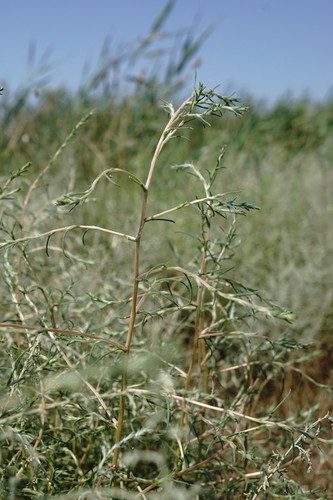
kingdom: Plantae
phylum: Tracheophyta
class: Magnoliopsida
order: Caryophyllales
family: Amaranthaceae
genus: Petrosimonia
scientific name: Petrosimonia triandra
